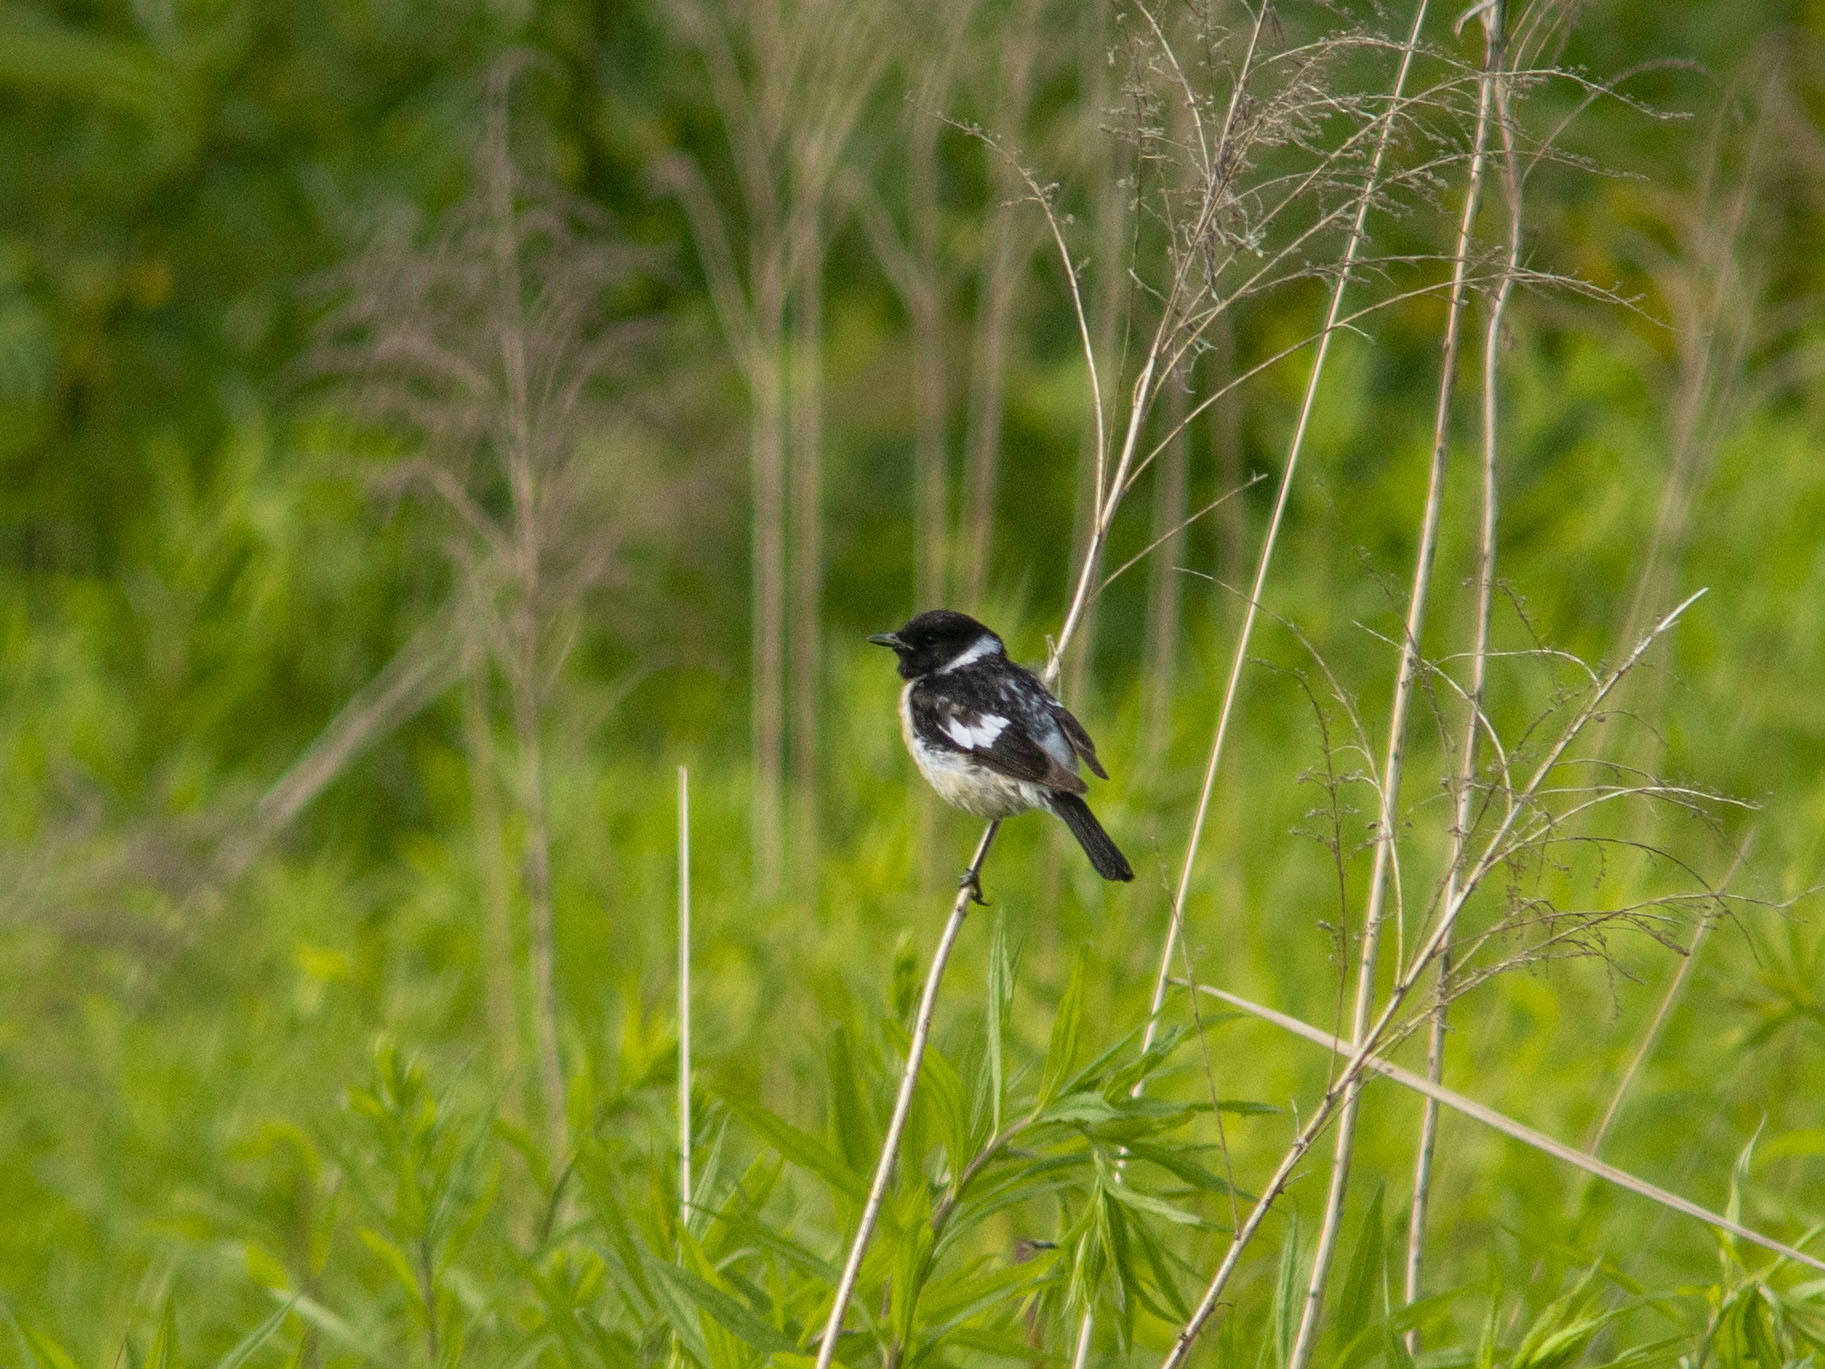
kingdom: Animalia
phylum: Chordata
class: Aves
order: Passeriformes
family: Muscicapidae
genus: Saxicola
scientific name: Saxicola maurus
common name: Siberian stonechat
